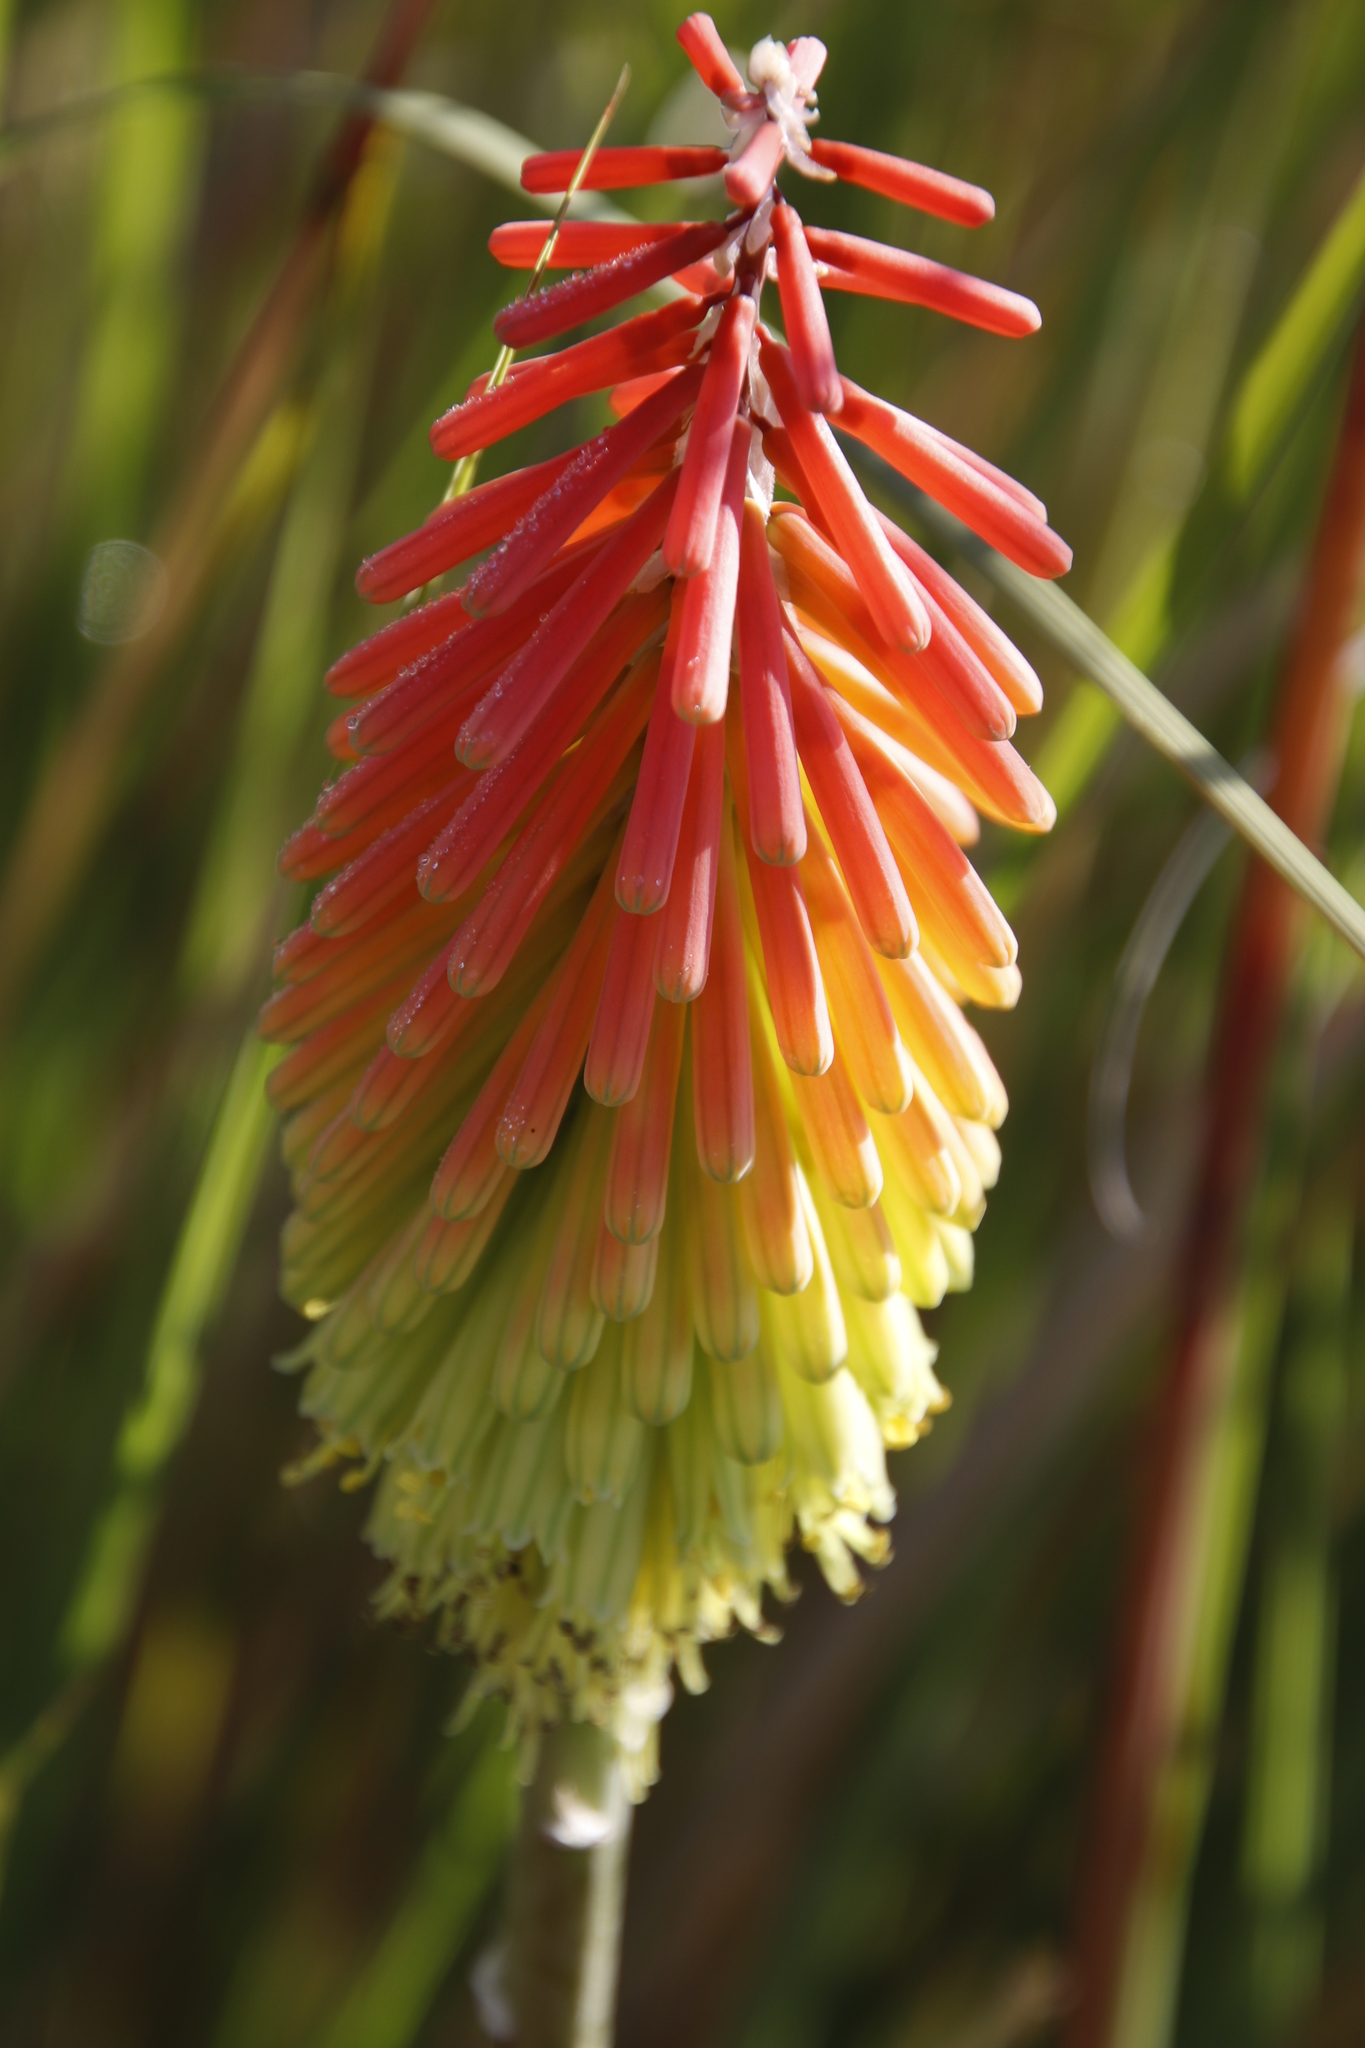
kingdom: Plantae
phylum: Tracheophyta
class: Liliopsida
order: Asparagales
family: Asphodelaceae
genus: Kniphofia
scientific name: Kniphofia stricta
